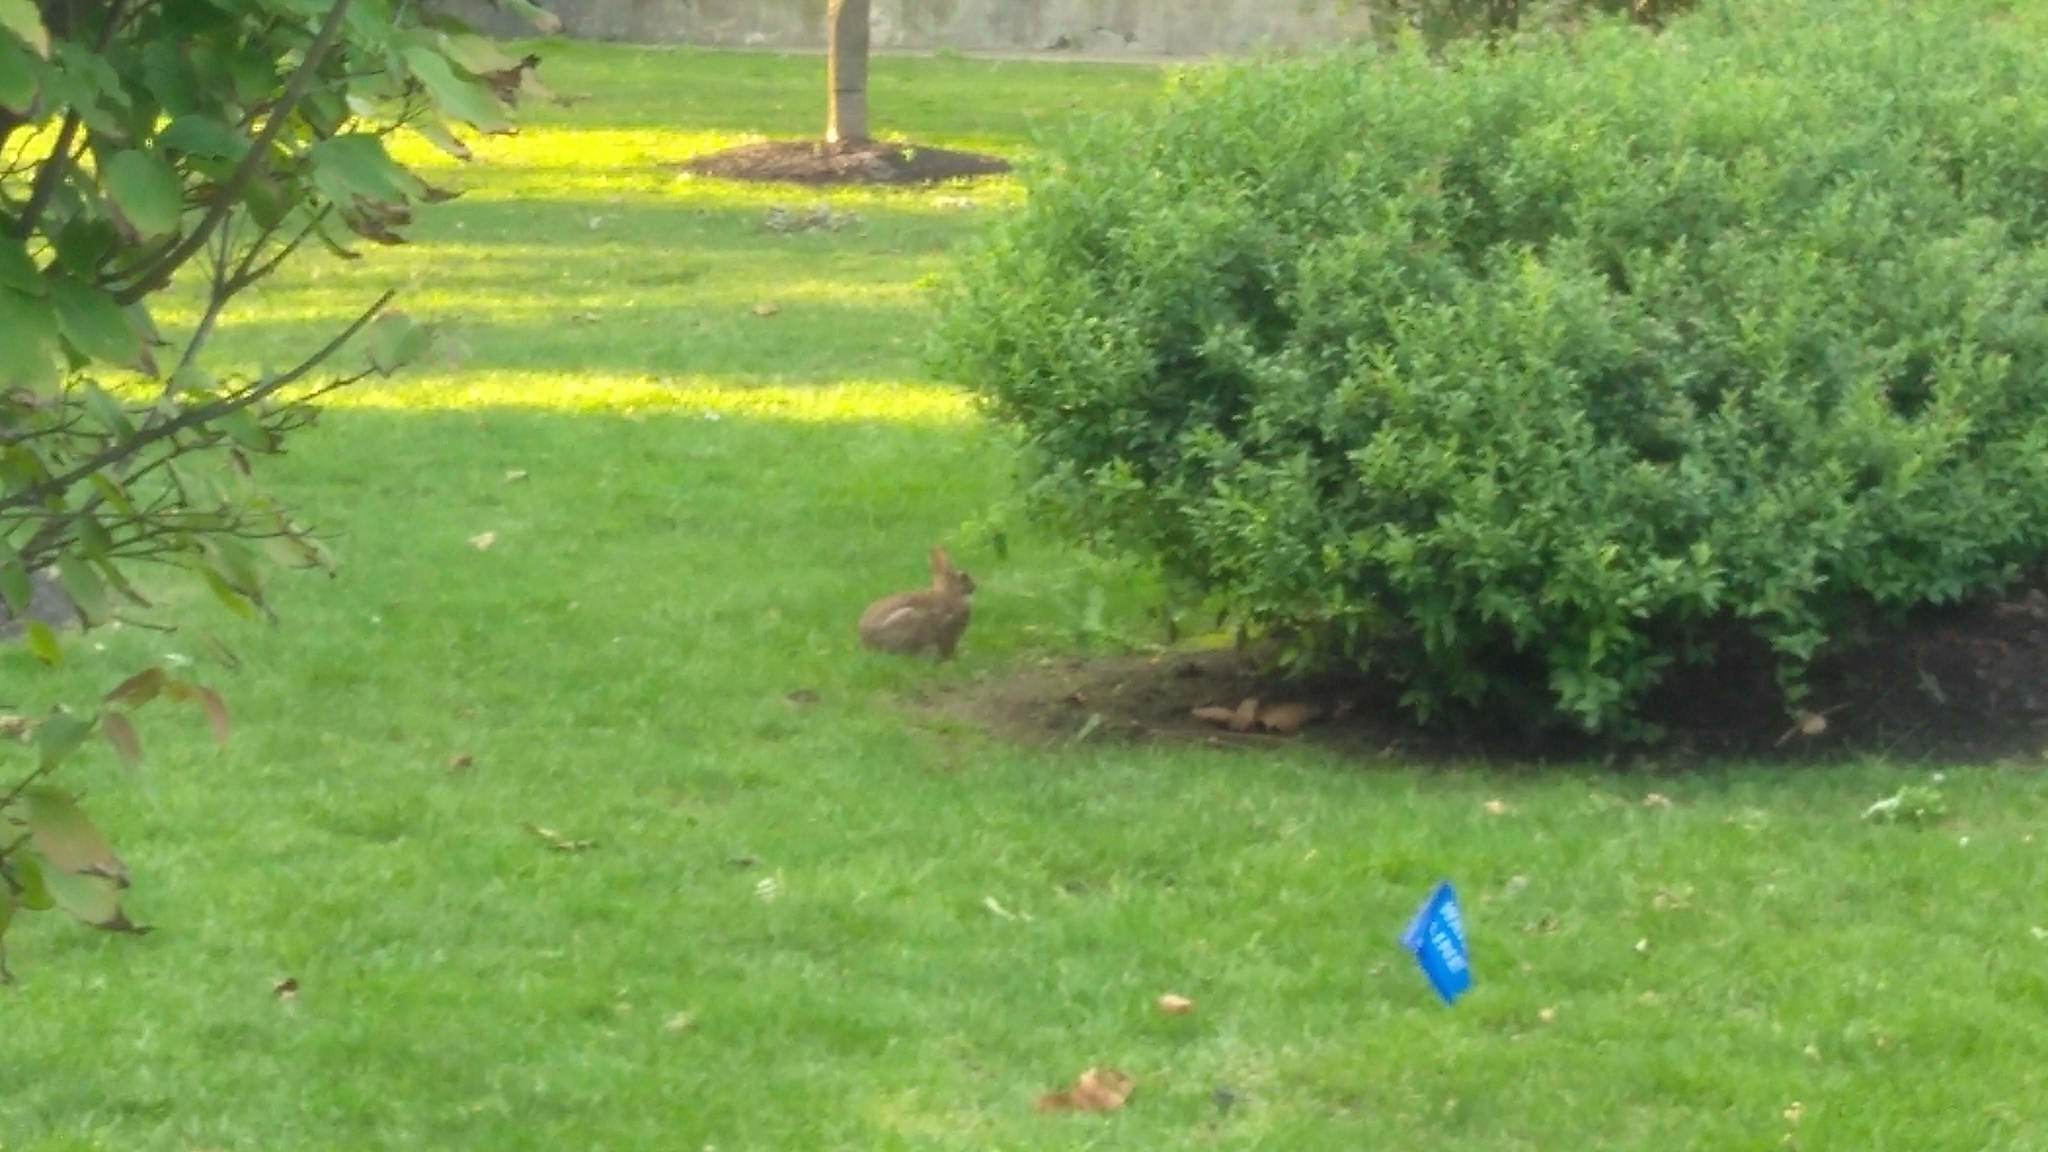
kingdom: Animalia
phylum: Chordata
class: Mammalia
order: Lagomorpha
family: Leporidae
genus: Sylvilagus
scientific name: Sylvilagus floridanus
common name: Eastern cottontail
